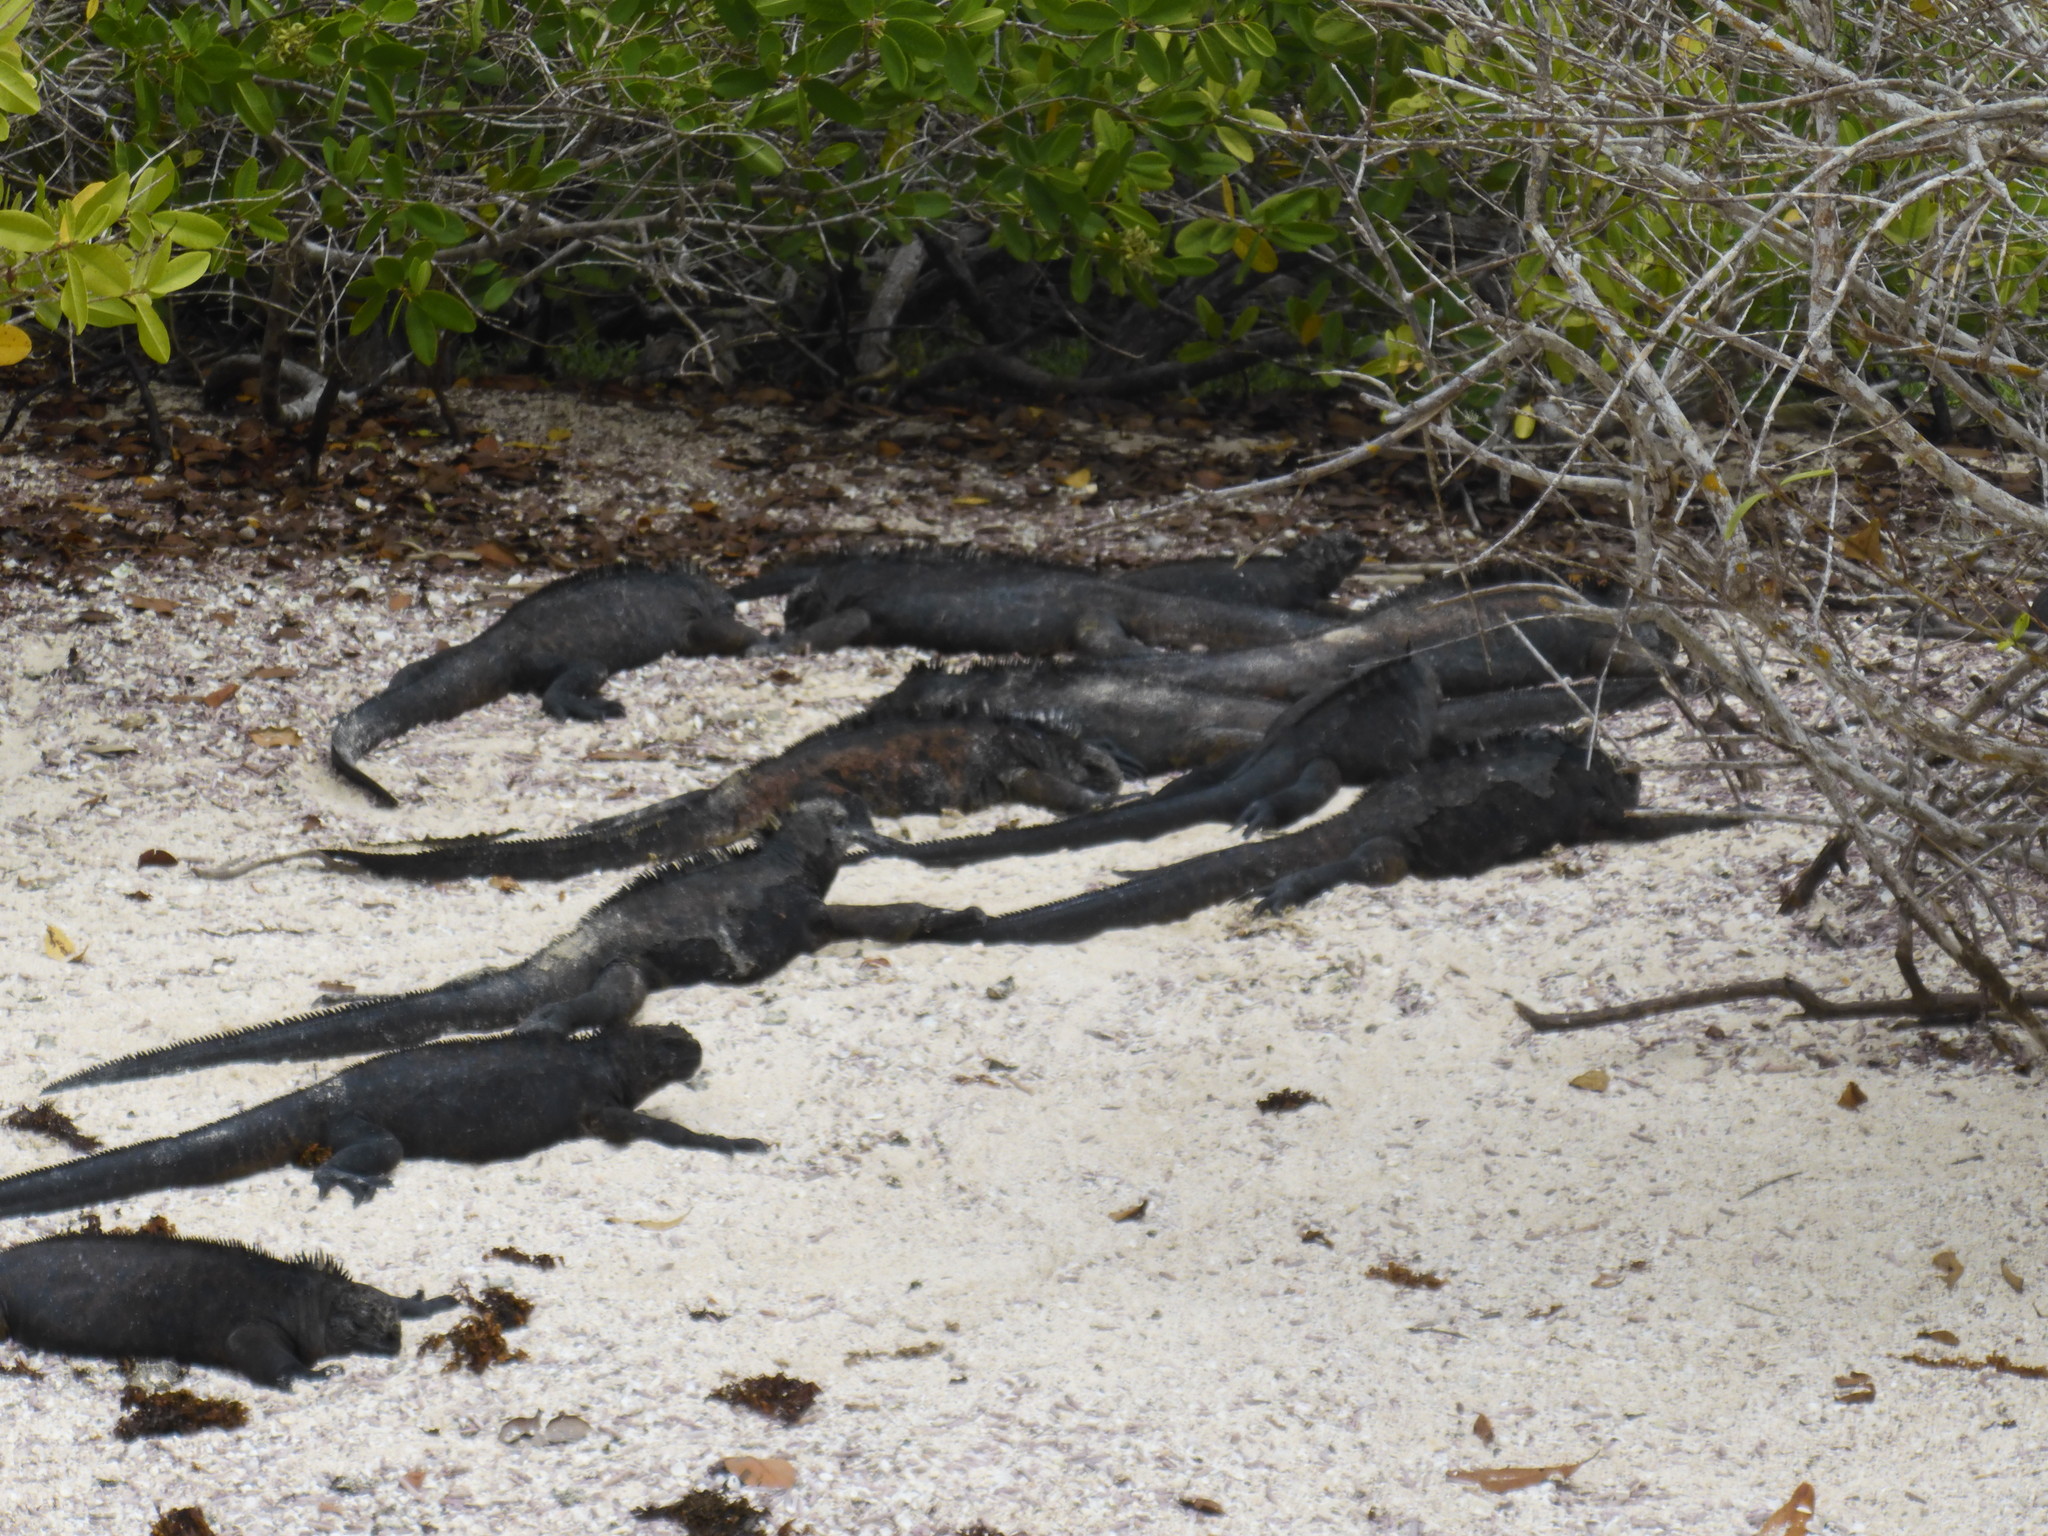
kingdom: Animalia
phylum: Chordata
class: Squamata
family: Iguanidae
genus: Amblyrhynchus
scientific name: Amblyrhynchus cristatus
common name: Marine iguana
